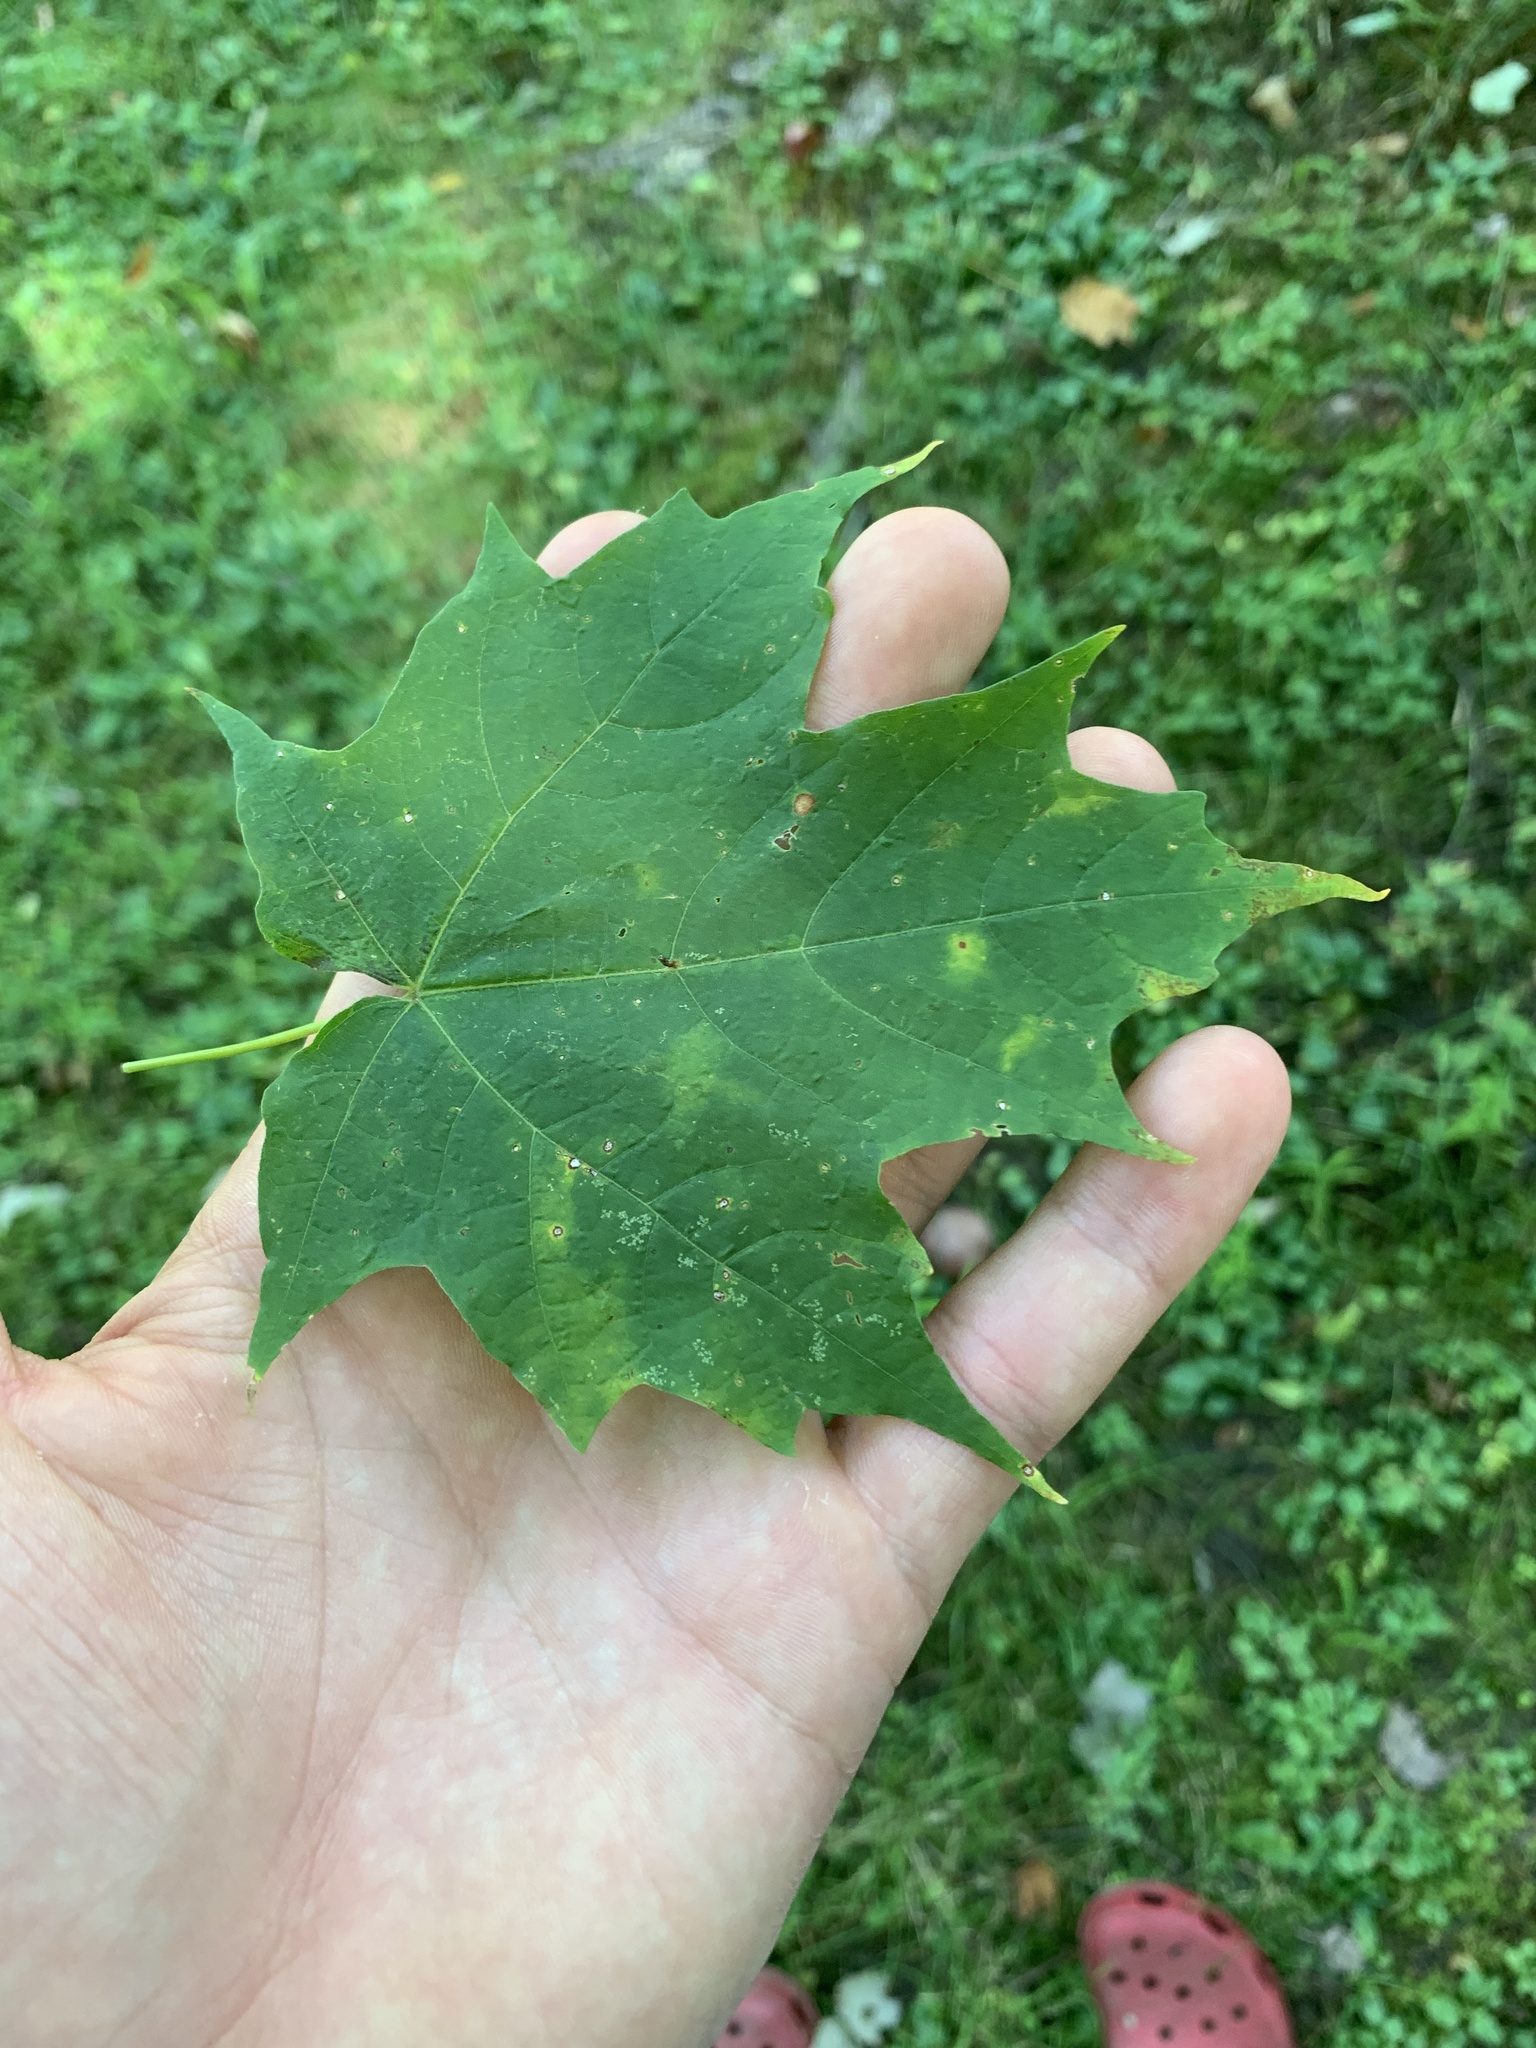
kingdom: Plantae
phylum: Tracheophyta
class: Magnoliopsida
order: Sapindales
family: Sapindaceae
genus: Acer
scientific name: Acer saccharum
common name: Sugar maple
